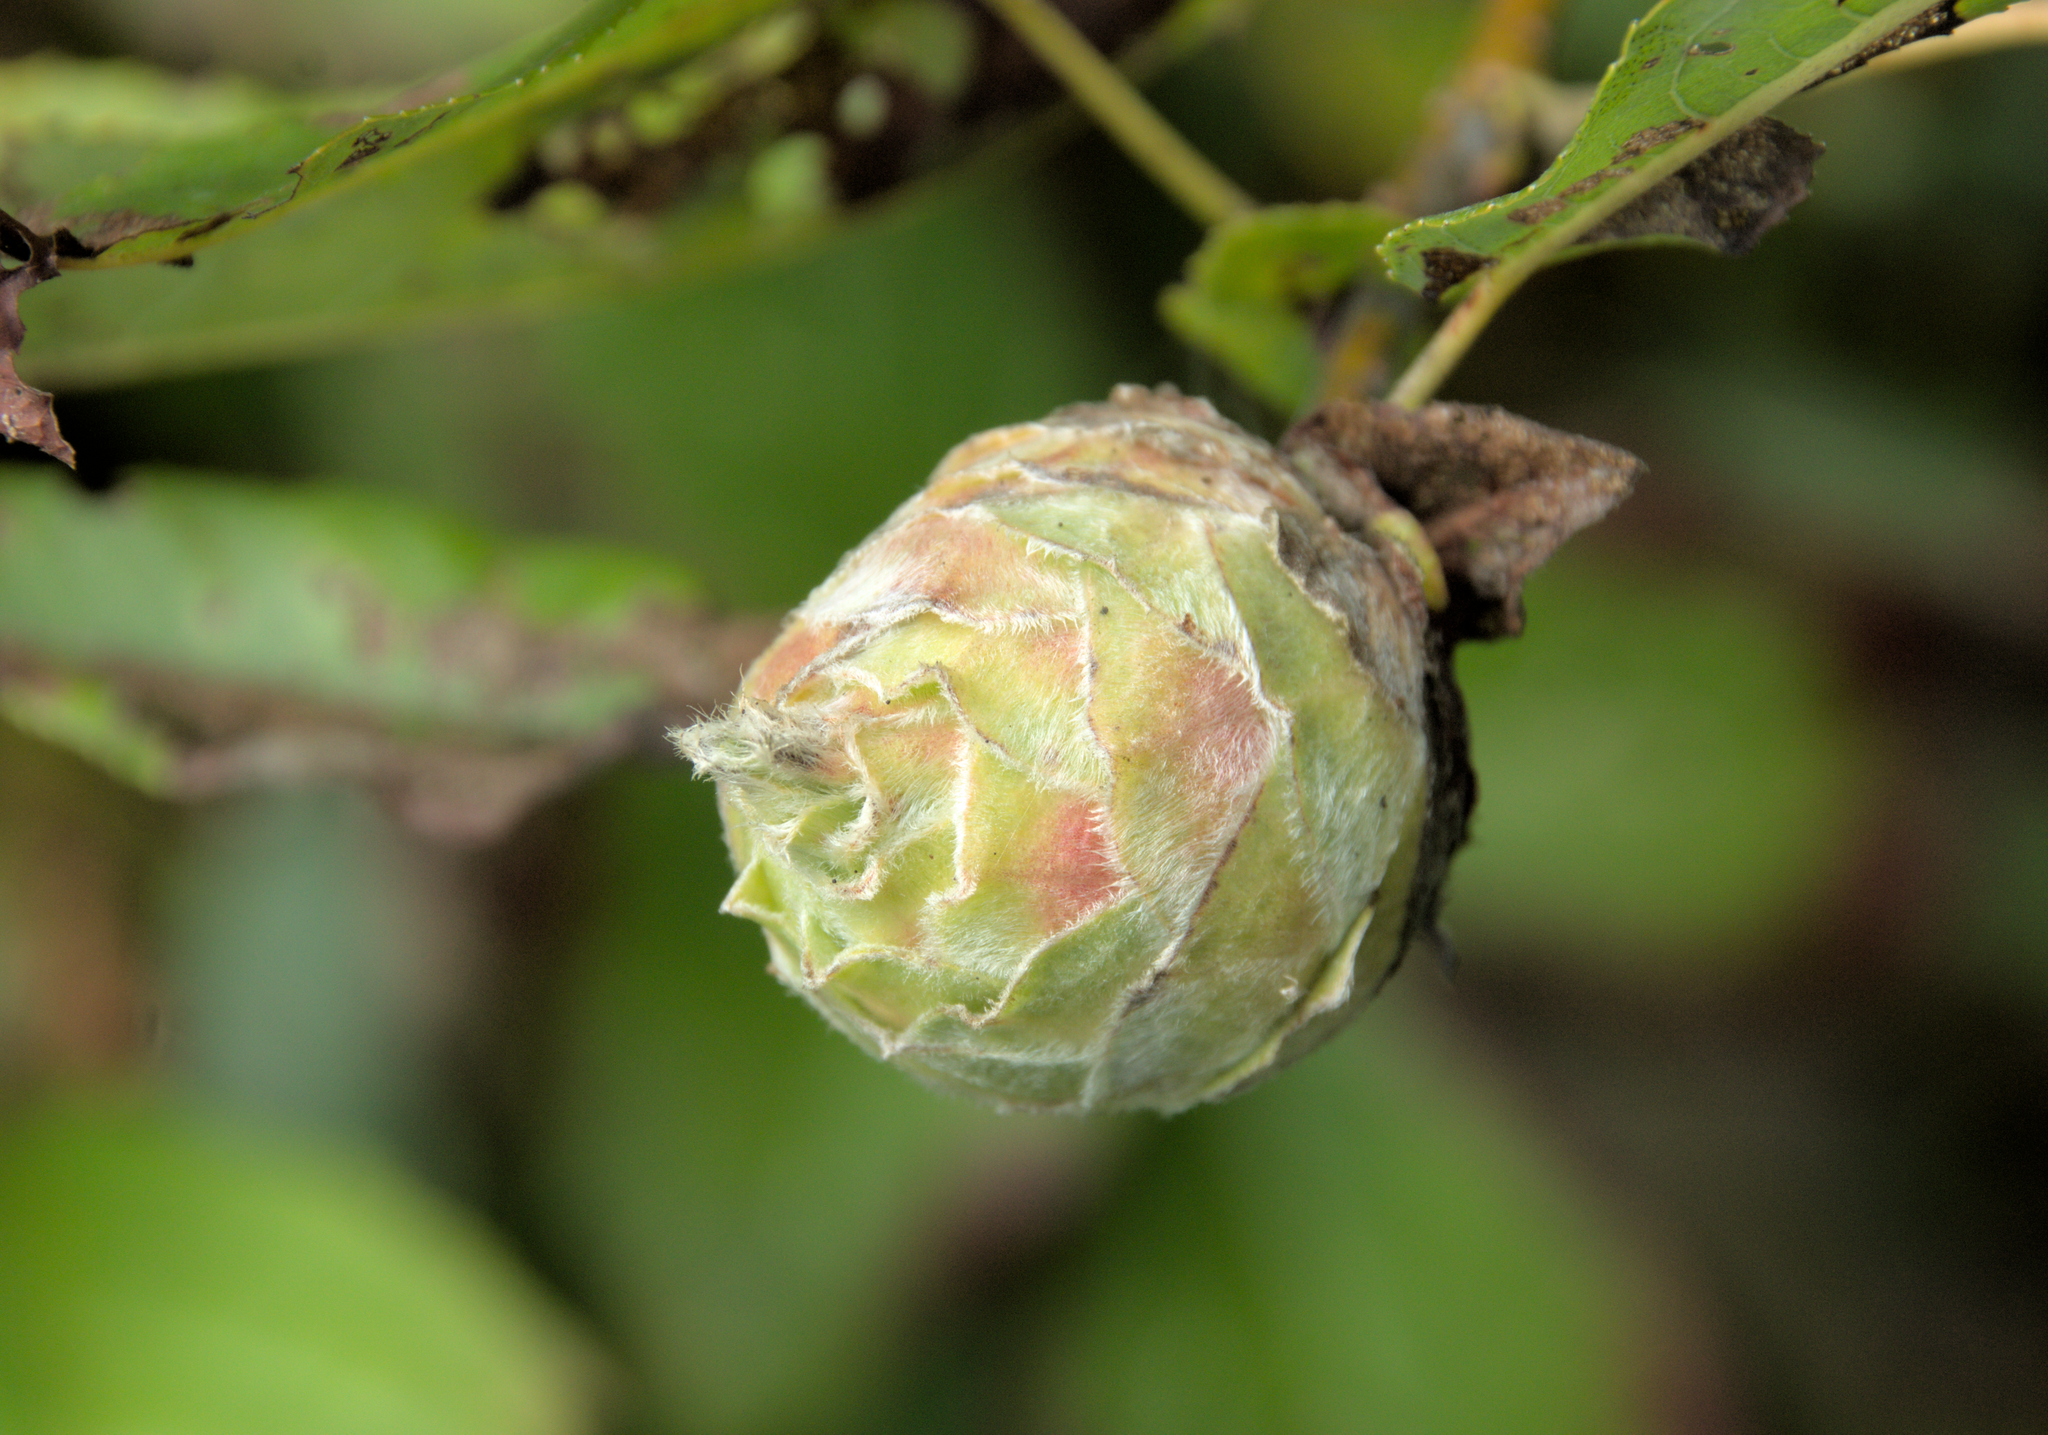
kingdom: Animalia
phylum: Arthropoda
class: Insecta
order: Diptera
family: Cecidomyiidae
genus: Rabdophaga
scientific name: Rabdophaga strobiloides
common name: Willow pinecone gall midge
